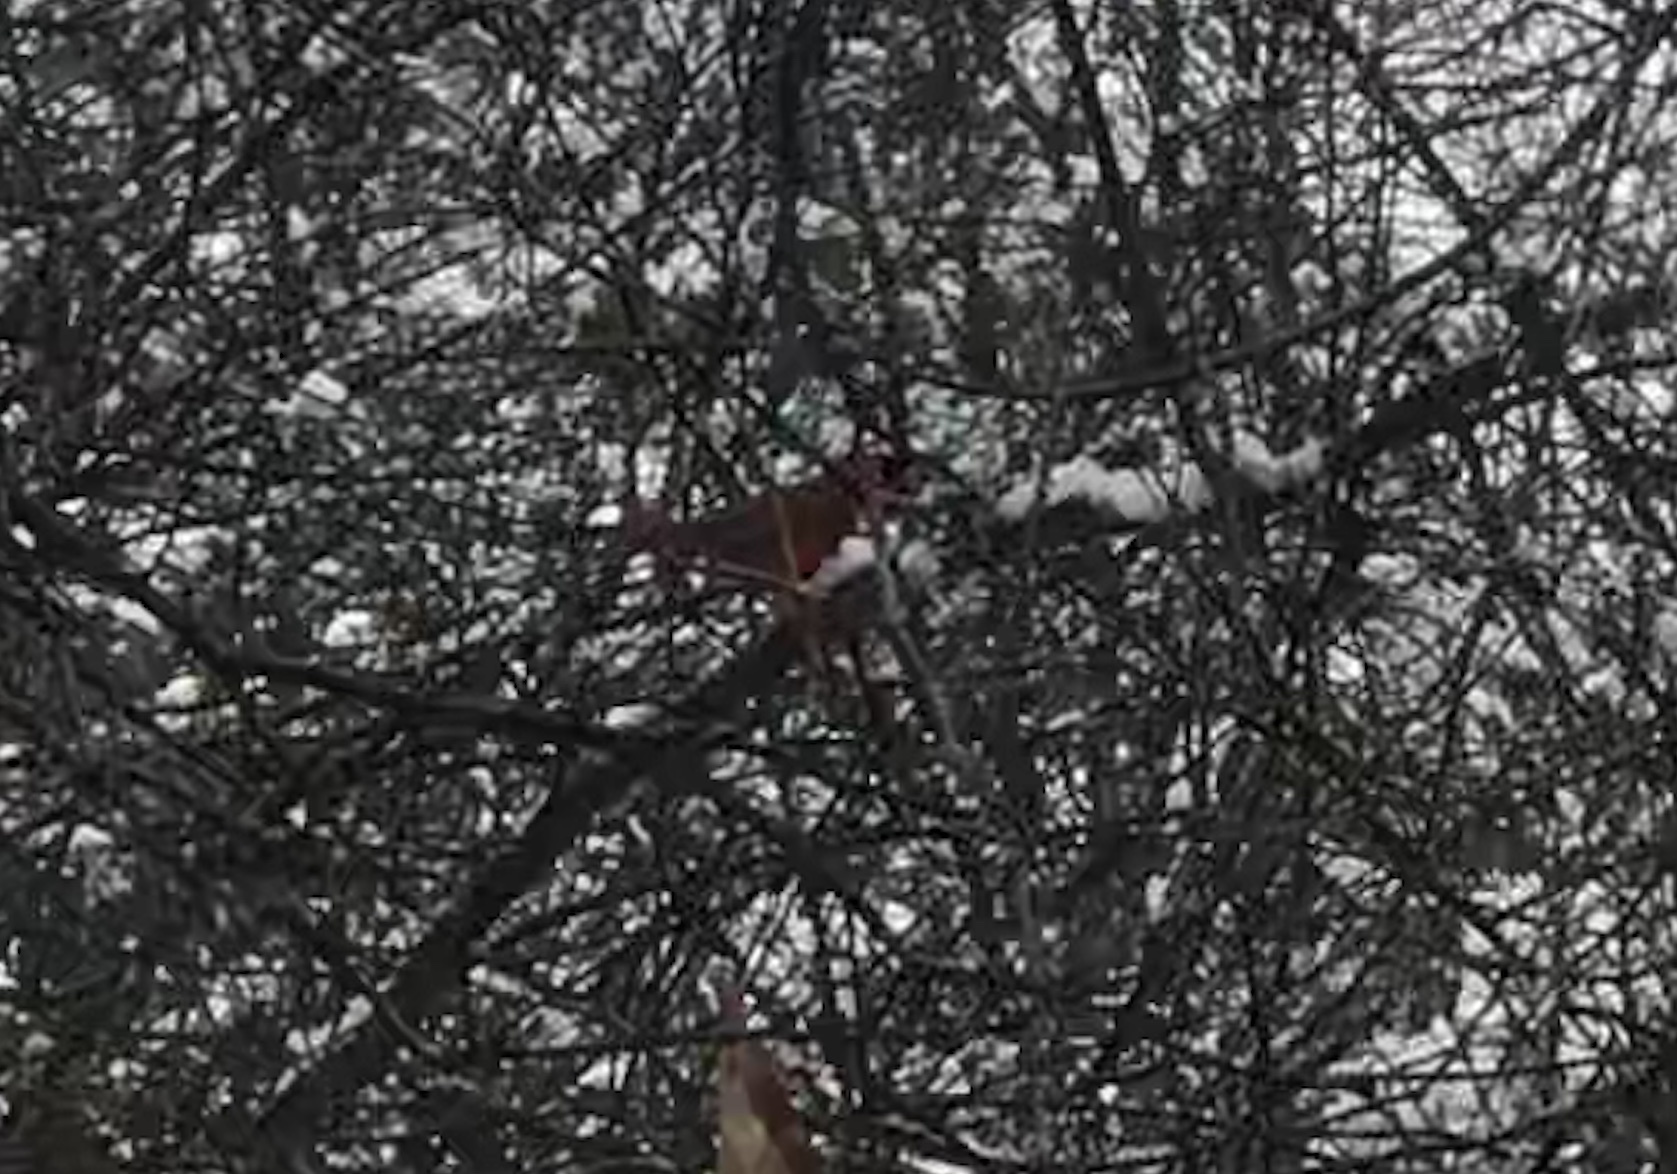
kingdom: Animalia
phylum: Chordata
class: Aves
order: Passeriformes
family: Cardinalidae
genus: Cardinalis
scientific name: Cardinalis cardinalis
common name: Northern cardinal
